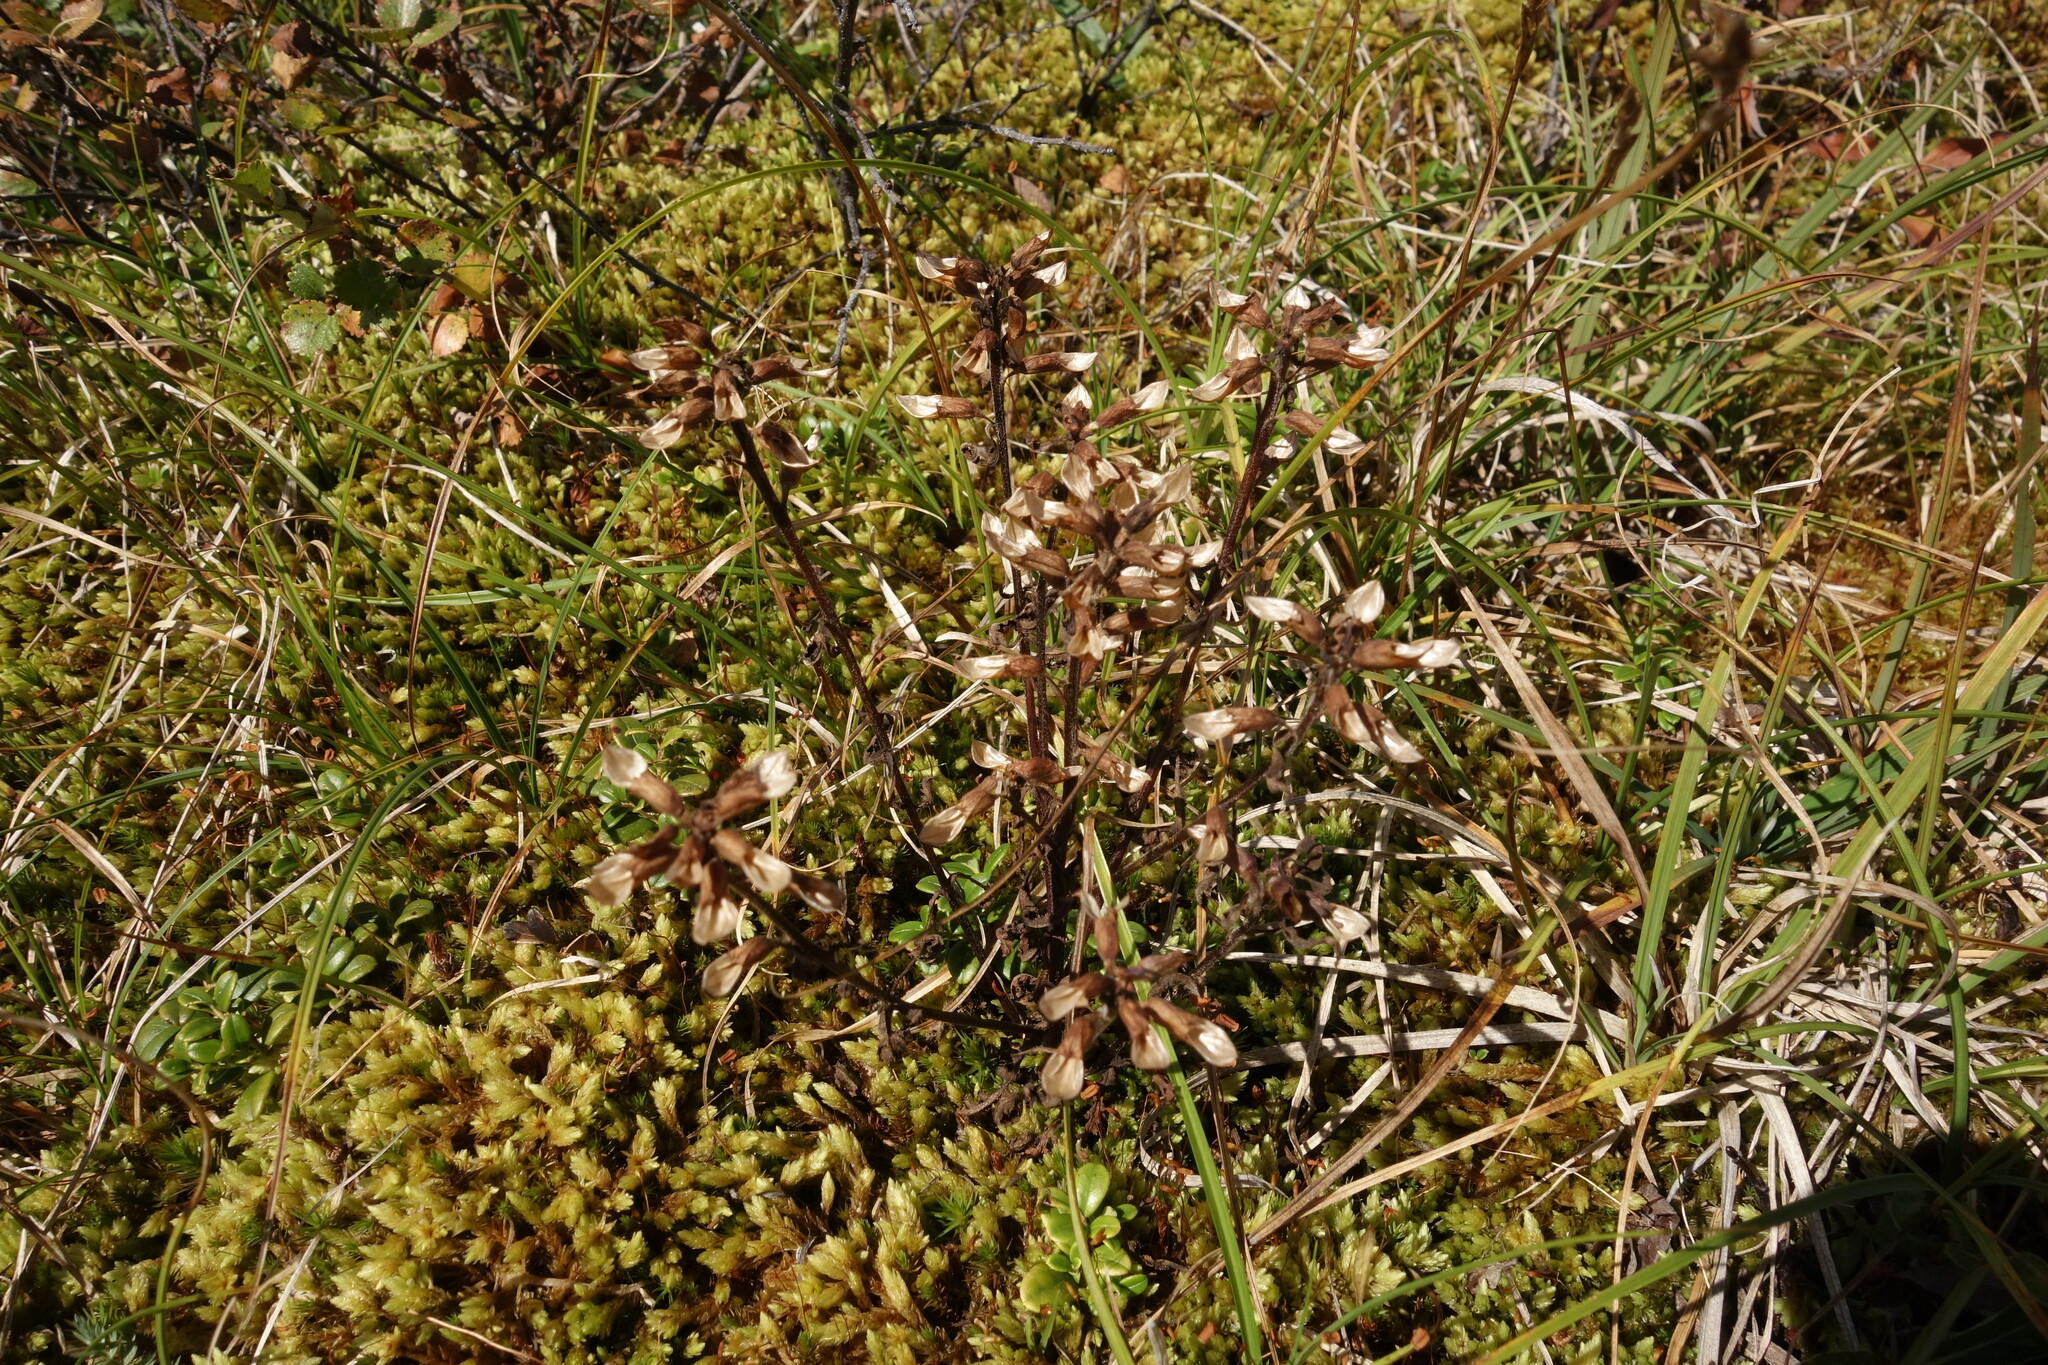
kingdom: Plantae
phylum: Tracheophyta
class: Magnoliopsida
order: Lamiales
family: Orobanchaceae
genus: Pedicularis
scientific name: Pedicularis labradorica
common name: Labrador lousewort
